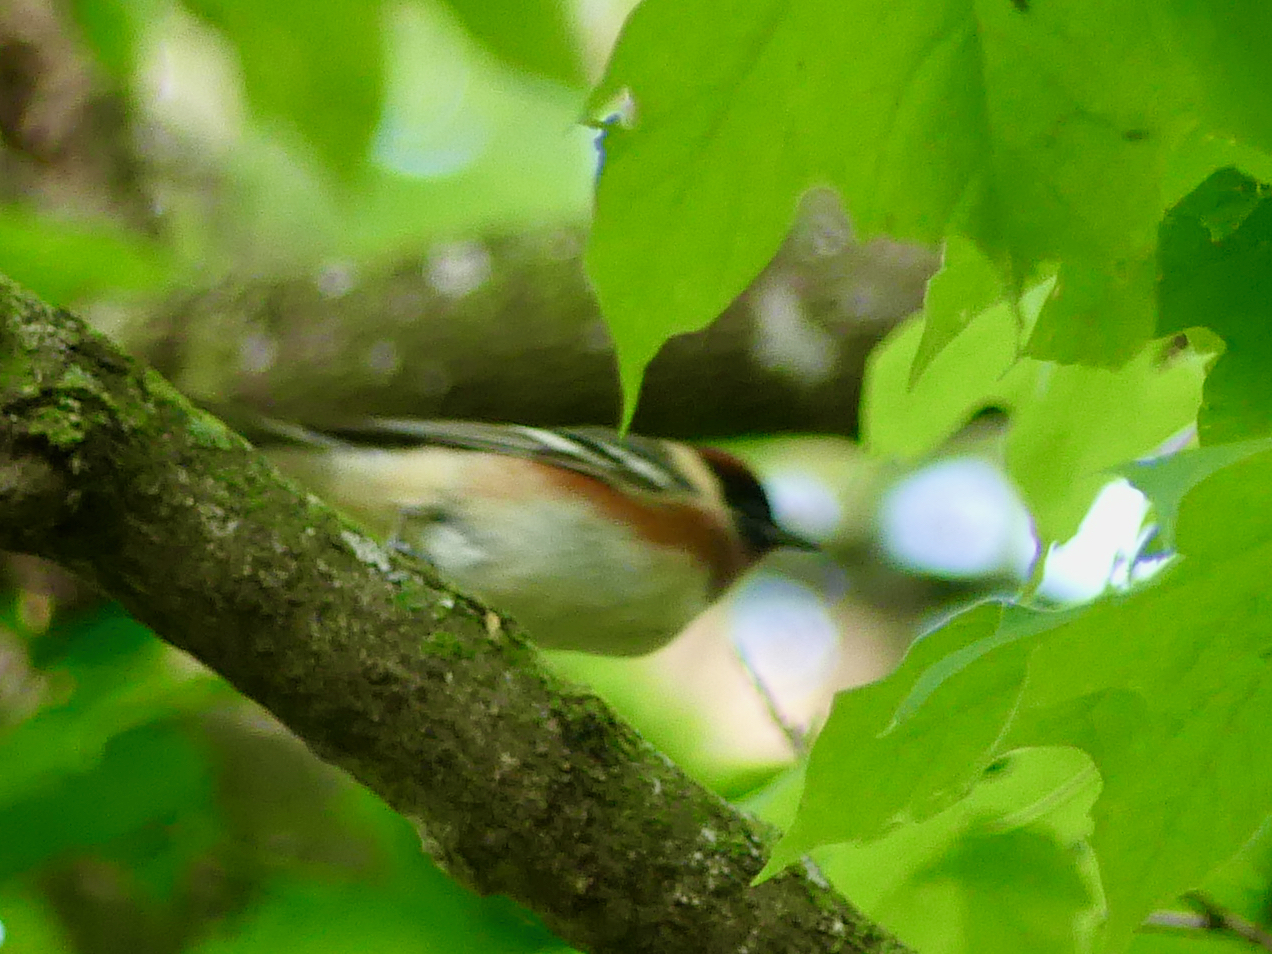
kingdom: Animalia
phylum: Chordata
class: Aves
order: Passeriformes
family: Parulidae
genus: Setophaga
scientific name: Setophaga castanea
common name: Bay-breasted warbler
